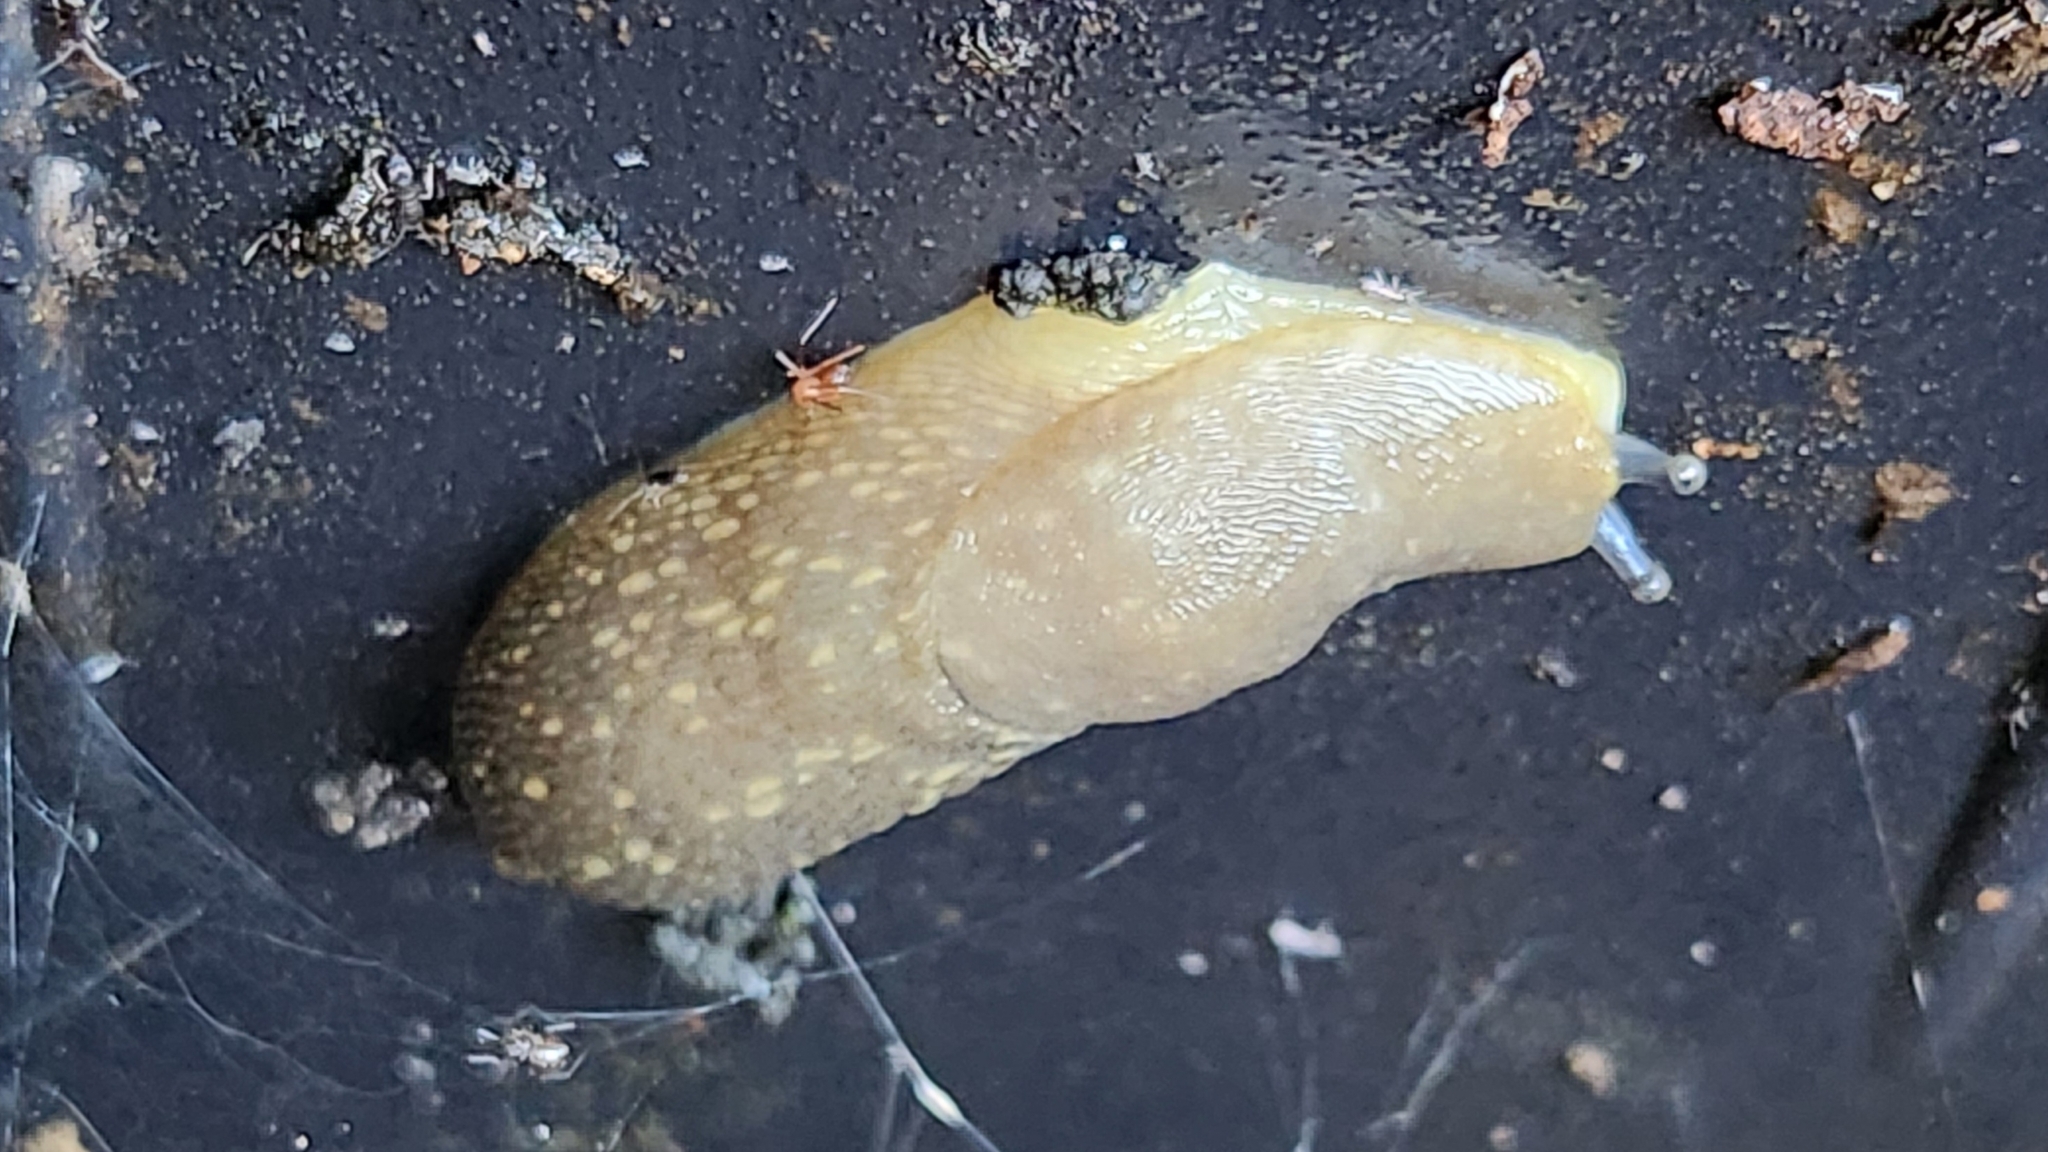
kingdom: Animalia
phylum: Mollusca
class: Gastropoda
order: Stylommatophora
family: Limacidae
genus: Limacus
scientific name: Limacus flavus
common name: Yellow gardenslug
